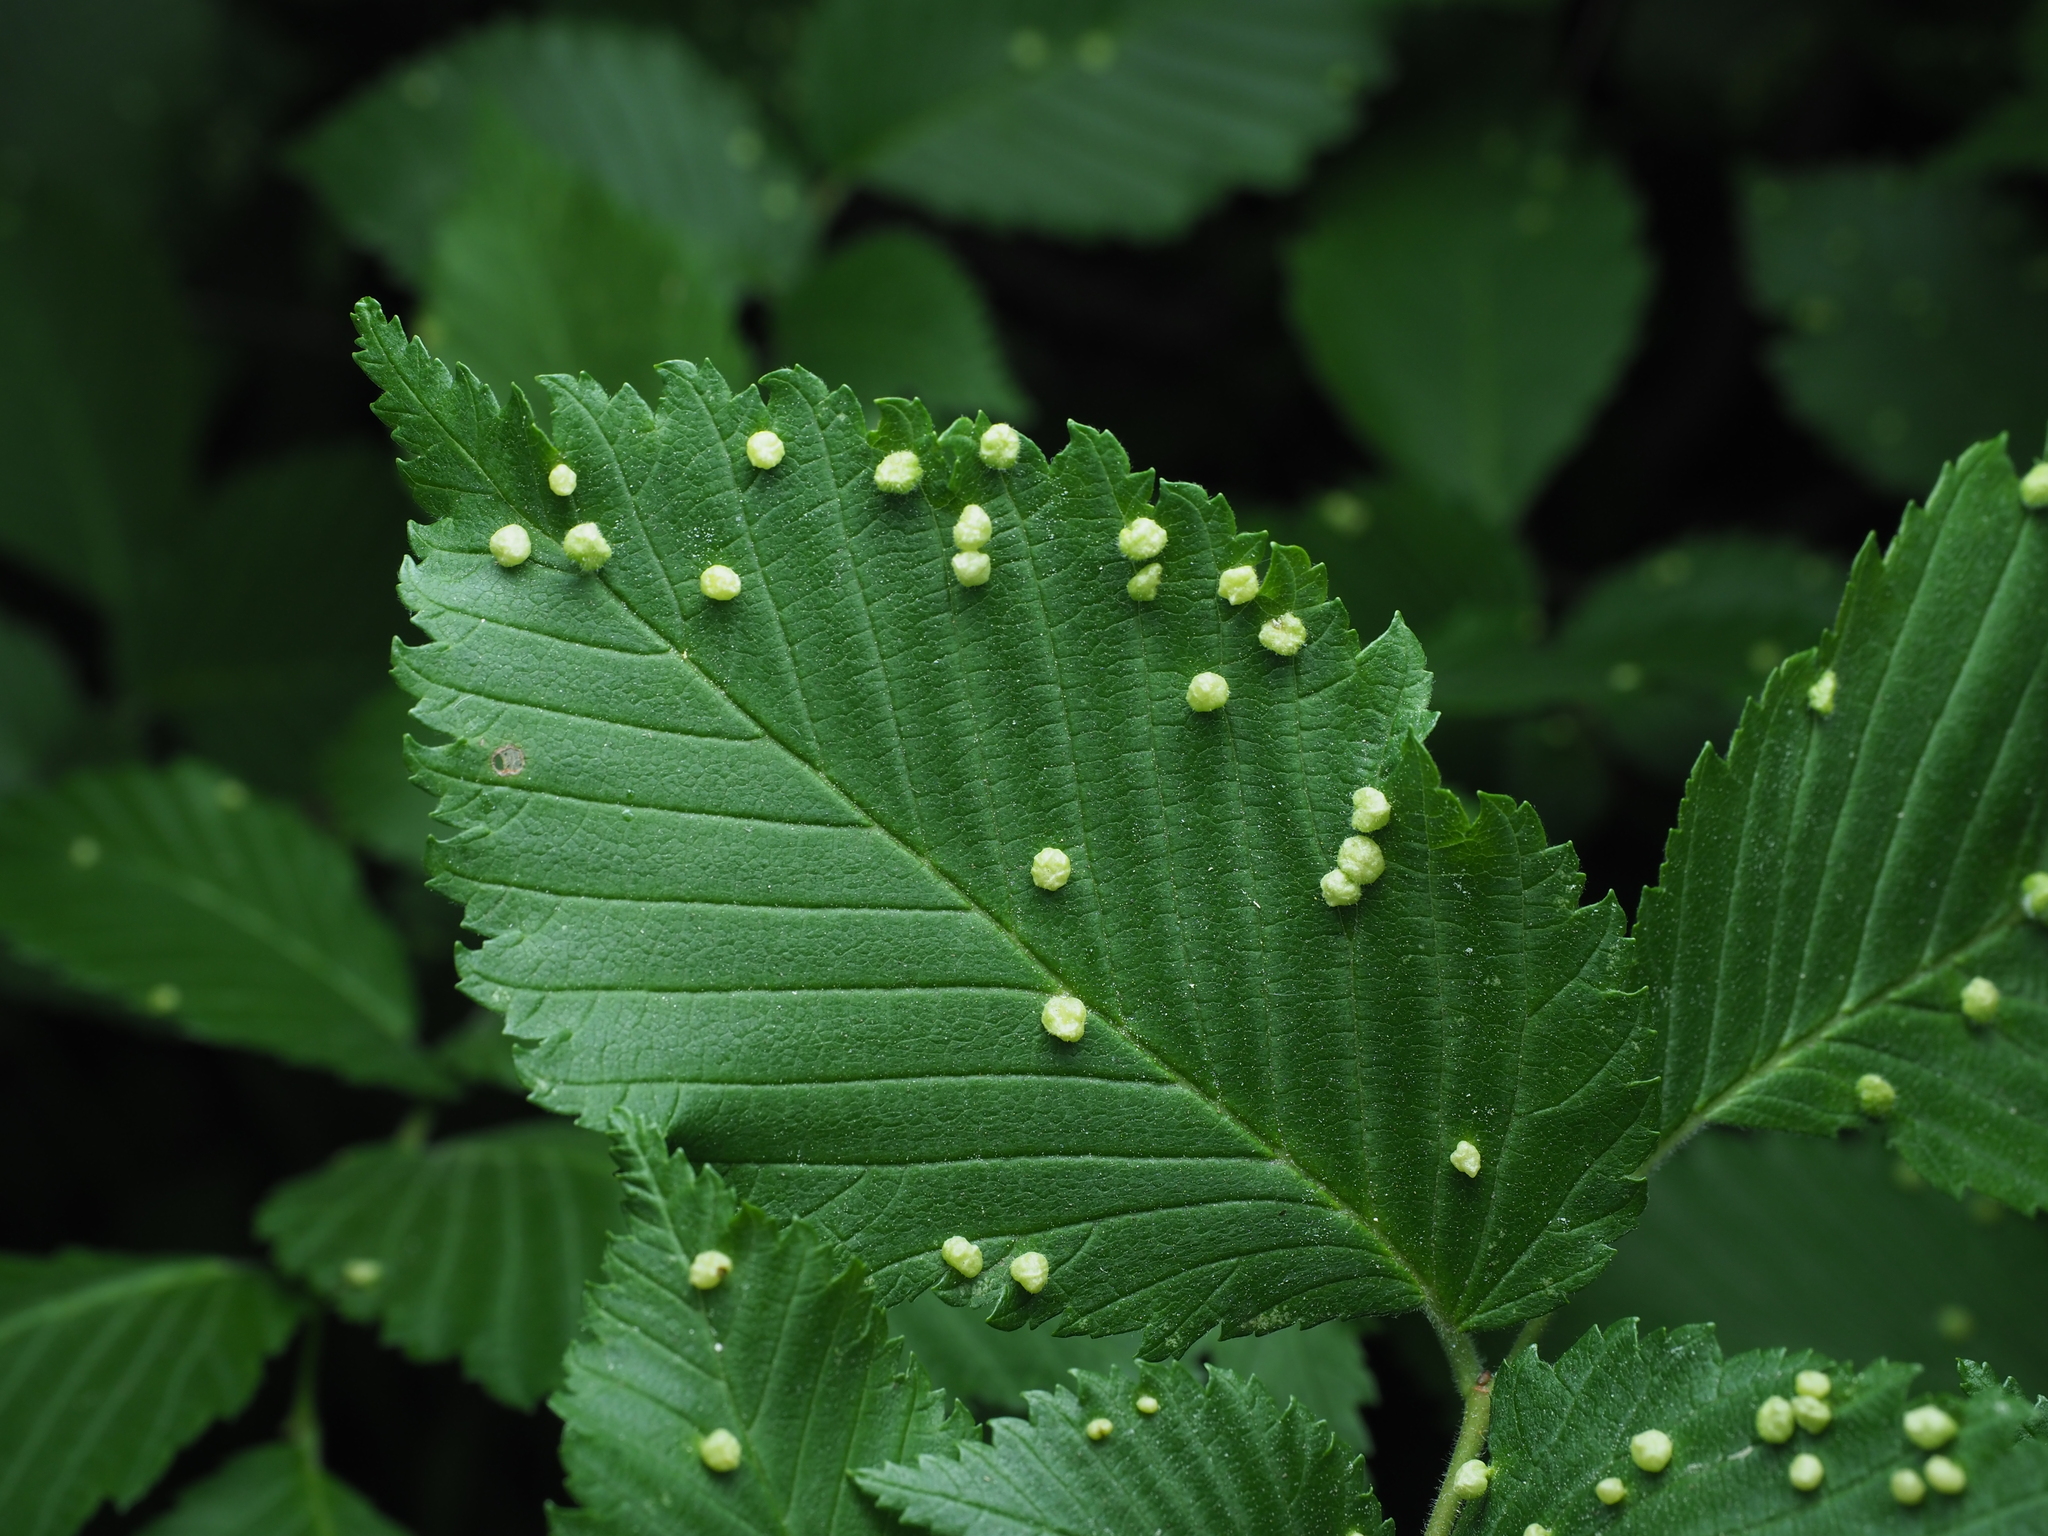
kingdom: Animalia
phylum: Arthropoda
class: Arachnida
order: Trombidiformes
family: Eriophyidae
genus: Aceria
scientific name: Aceria brevipunctata
